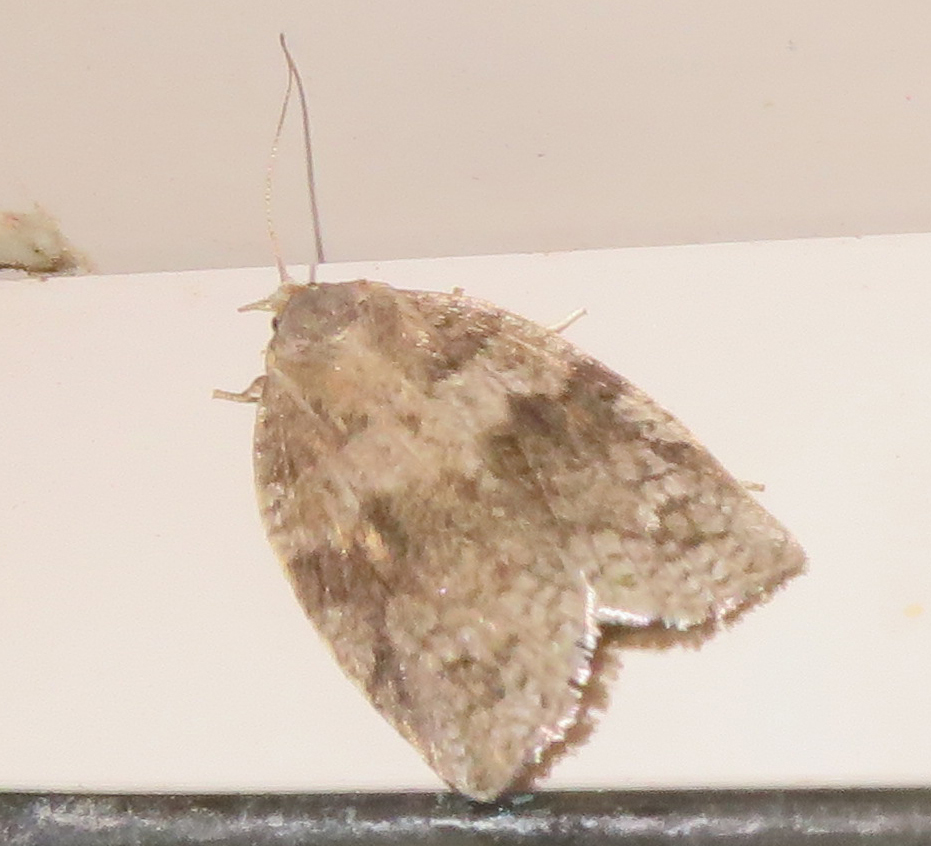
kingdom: Animalia
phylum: Arthropoda
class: Insecta
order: Lepidoptera
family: Tortricidae
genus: Choristoneura
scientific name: Choristoneura conflictana
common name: Large aspen tortrix
